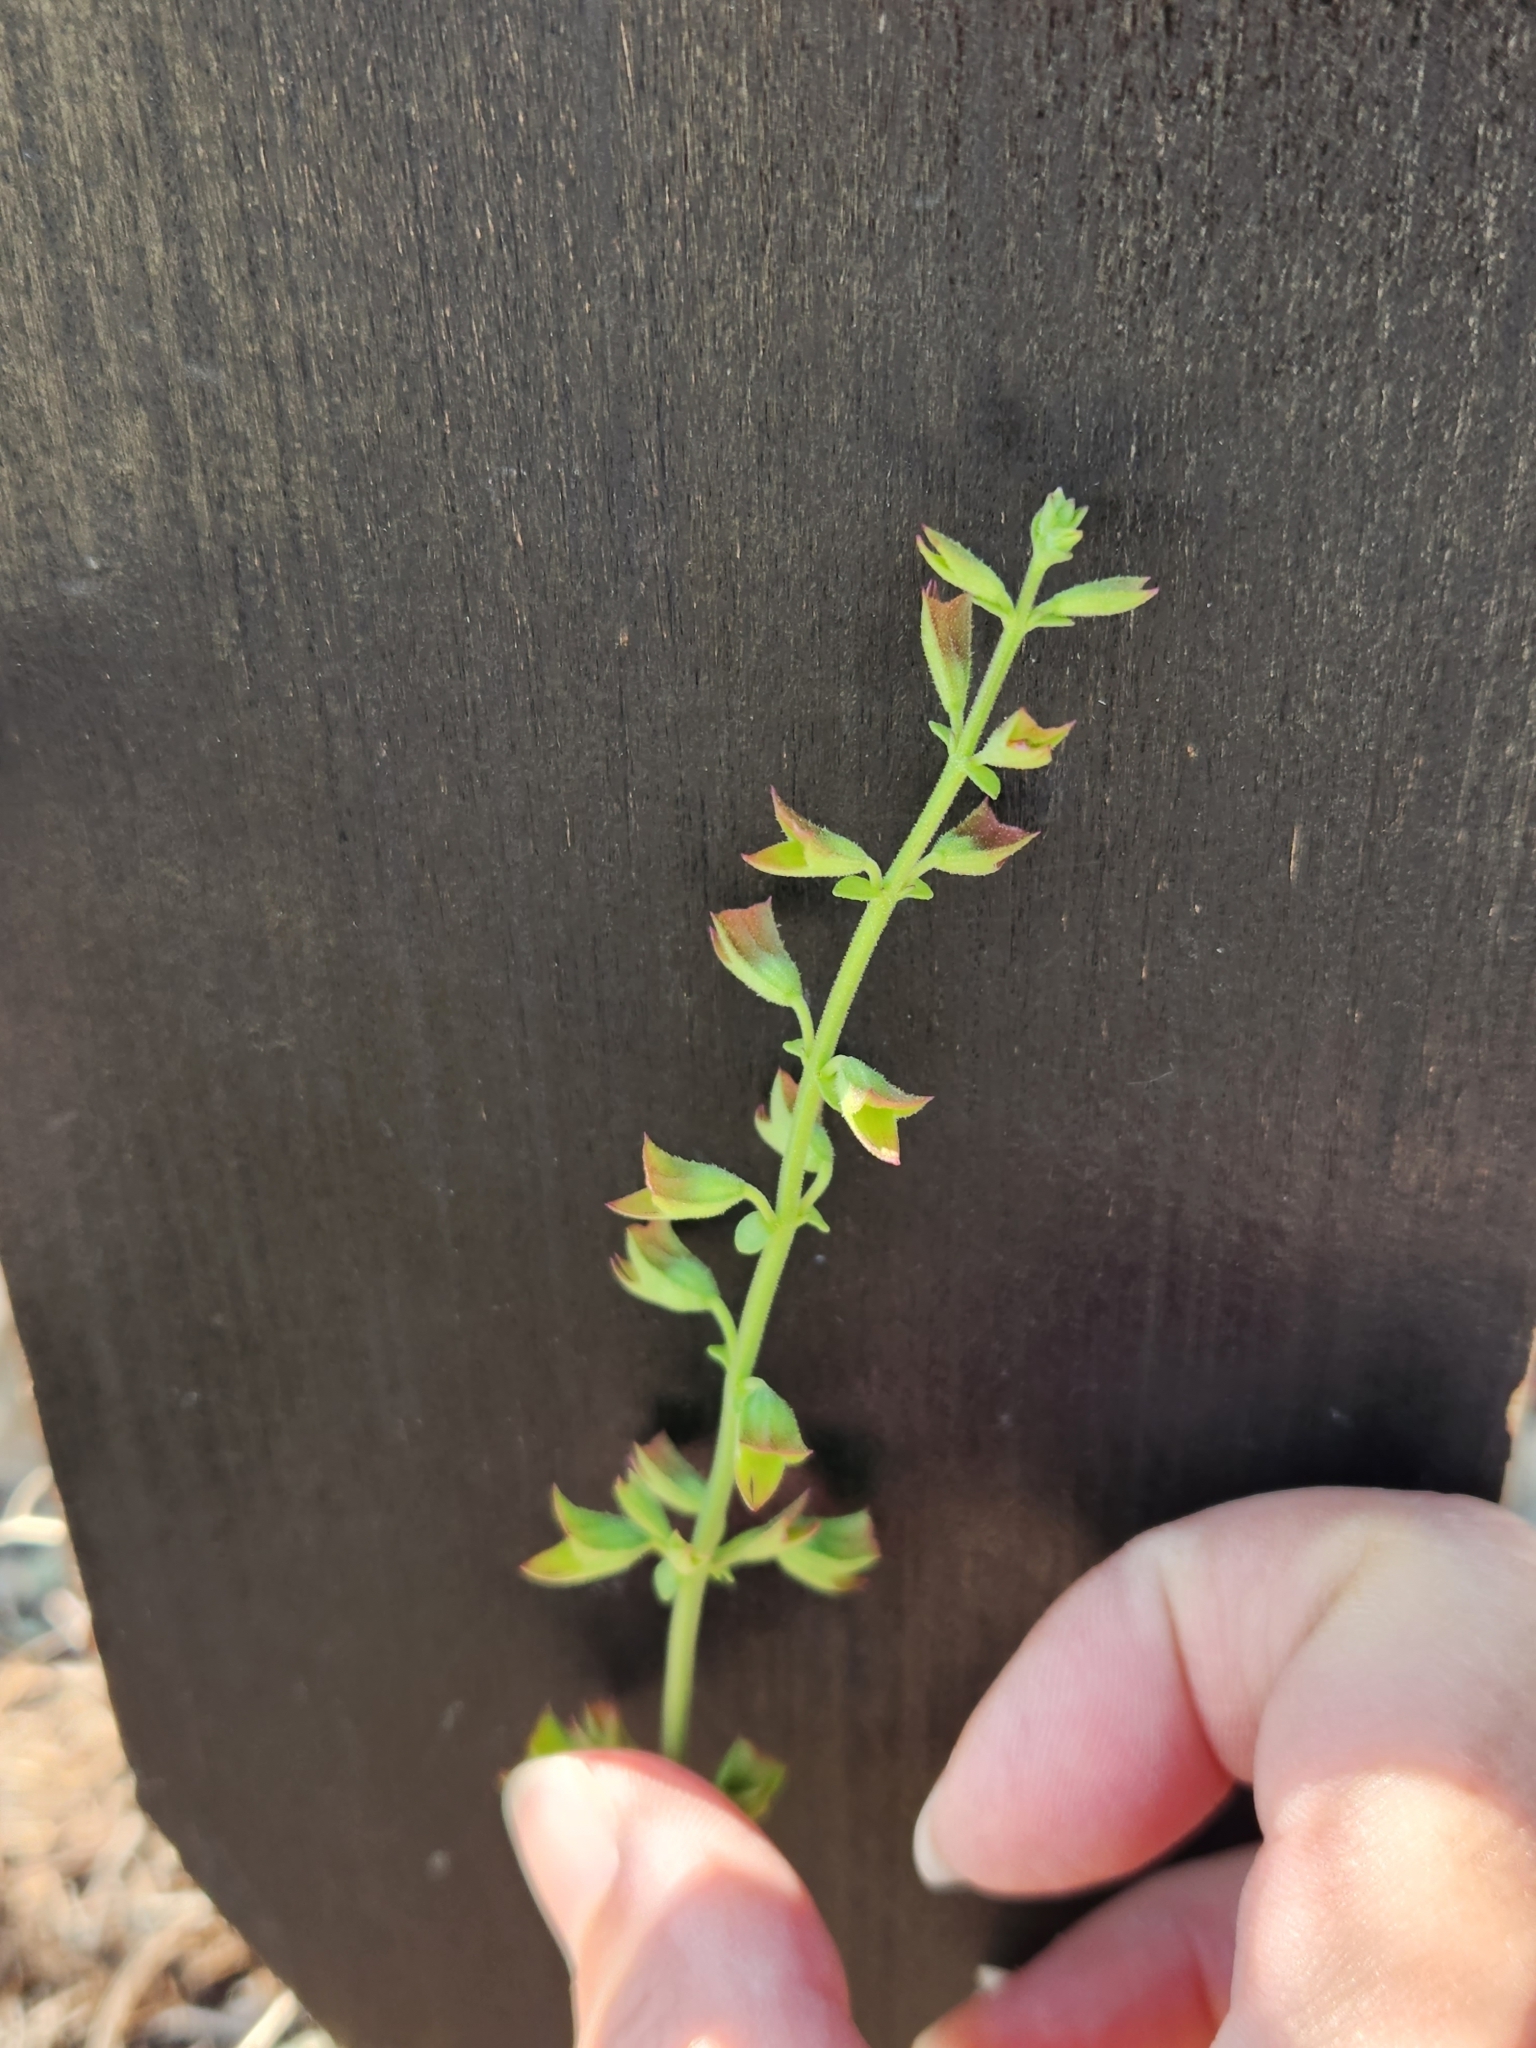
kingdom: Plantae
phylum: Tracheophyta
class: Magnoliopsida
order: Lamiales
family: Lamiaceae
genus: Salvia
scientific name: Salvia roemeriana
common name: Cedar sage
